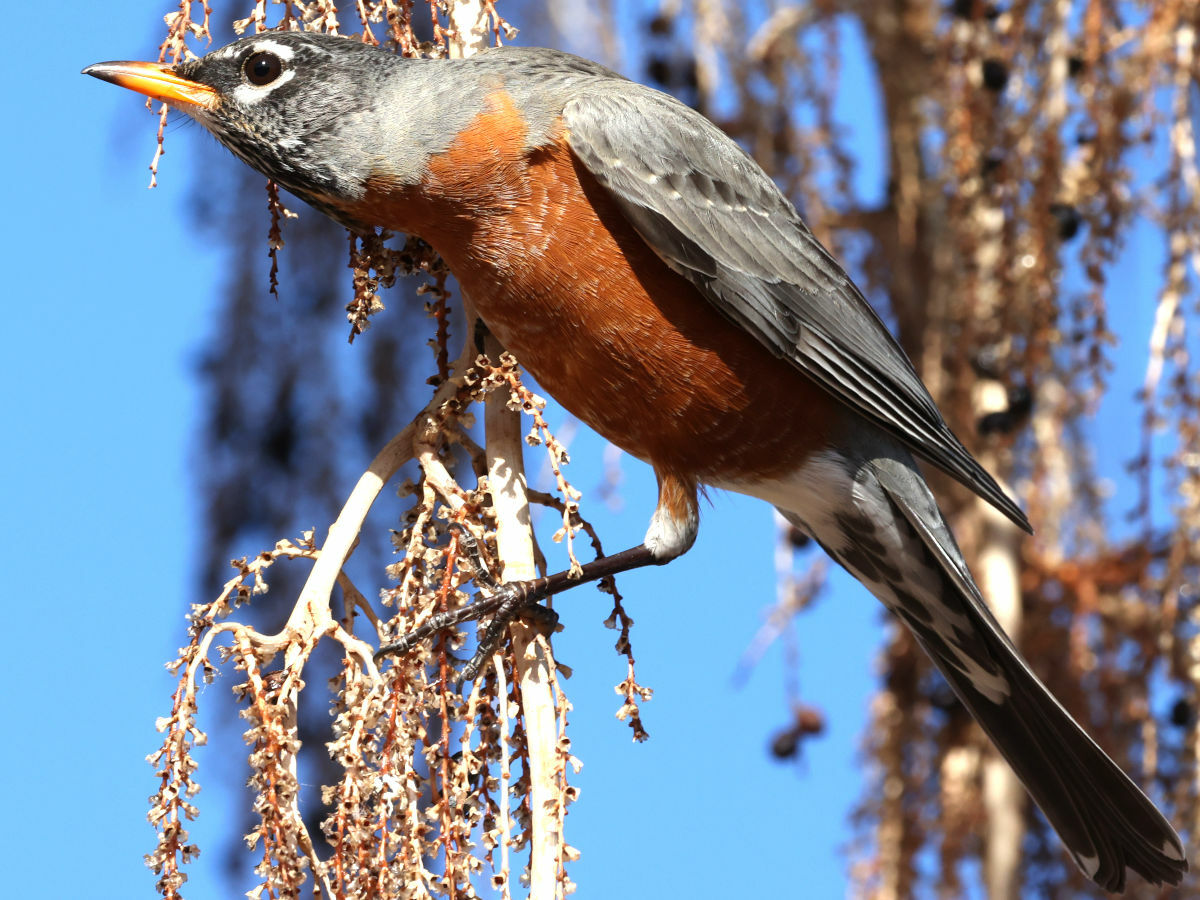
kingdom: Animalia
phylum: Chordata
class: Aves
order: Passeriformes
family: Turdidae
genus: Turdus
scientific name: Turdus migratorius
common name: American robin
